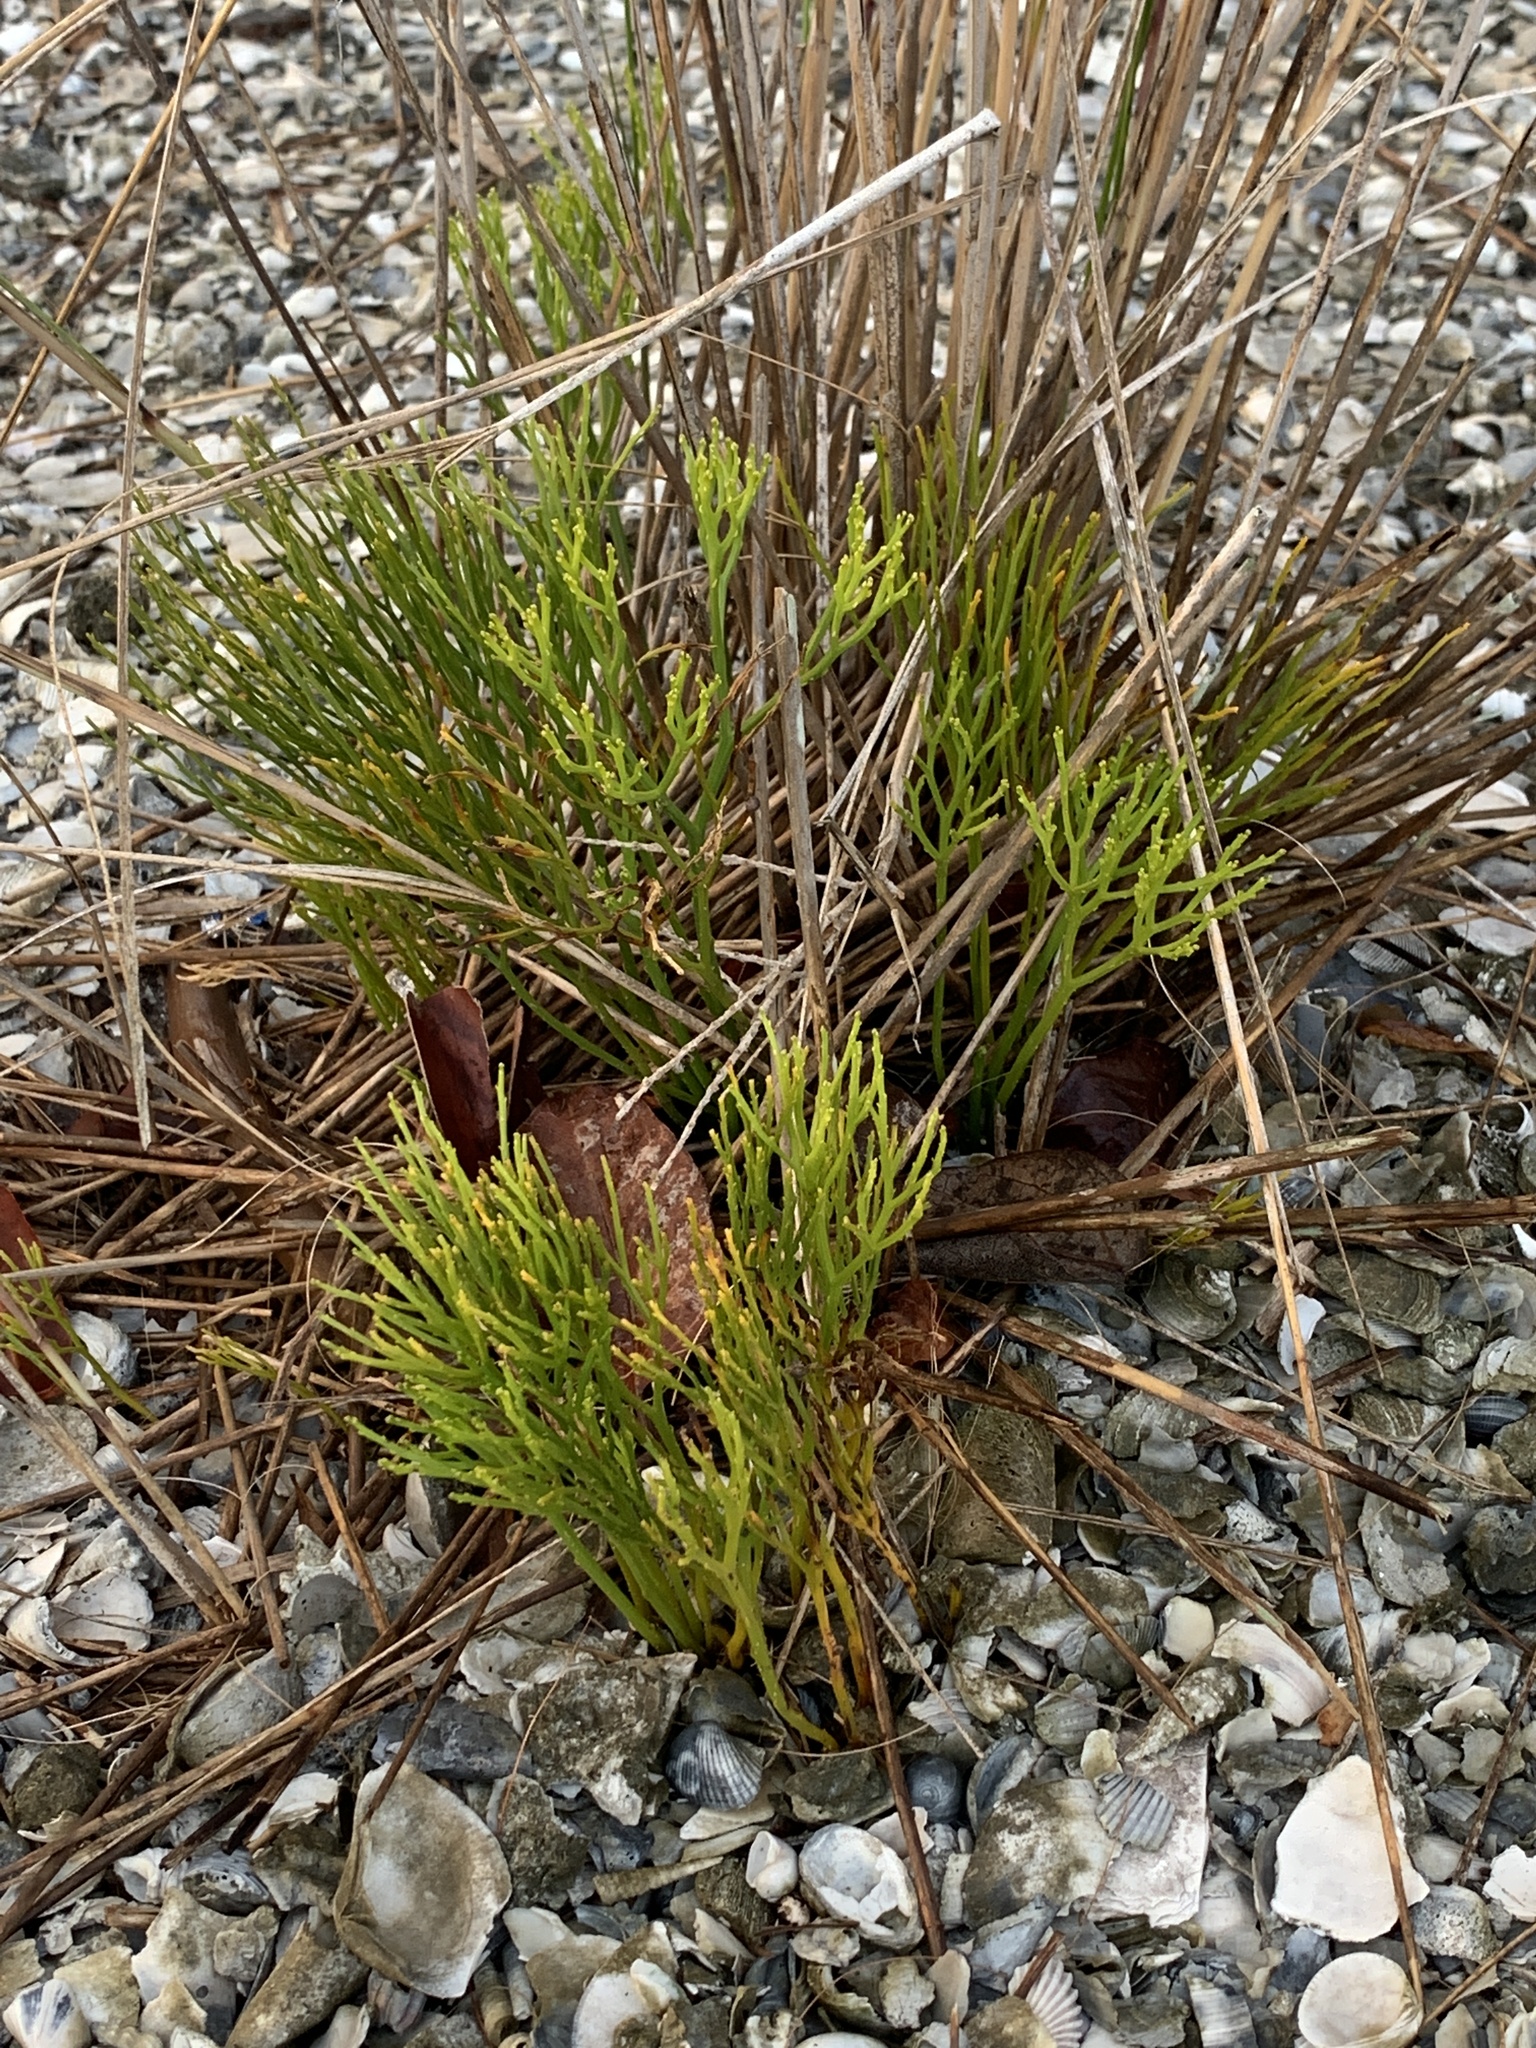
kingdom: Plantae
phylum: Tracheophyta
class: Polypodiopsida
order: Psilotales
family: Psilotaceae
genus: Psilotum
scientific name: Psilotum nudum
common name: Skeleton fork fern
